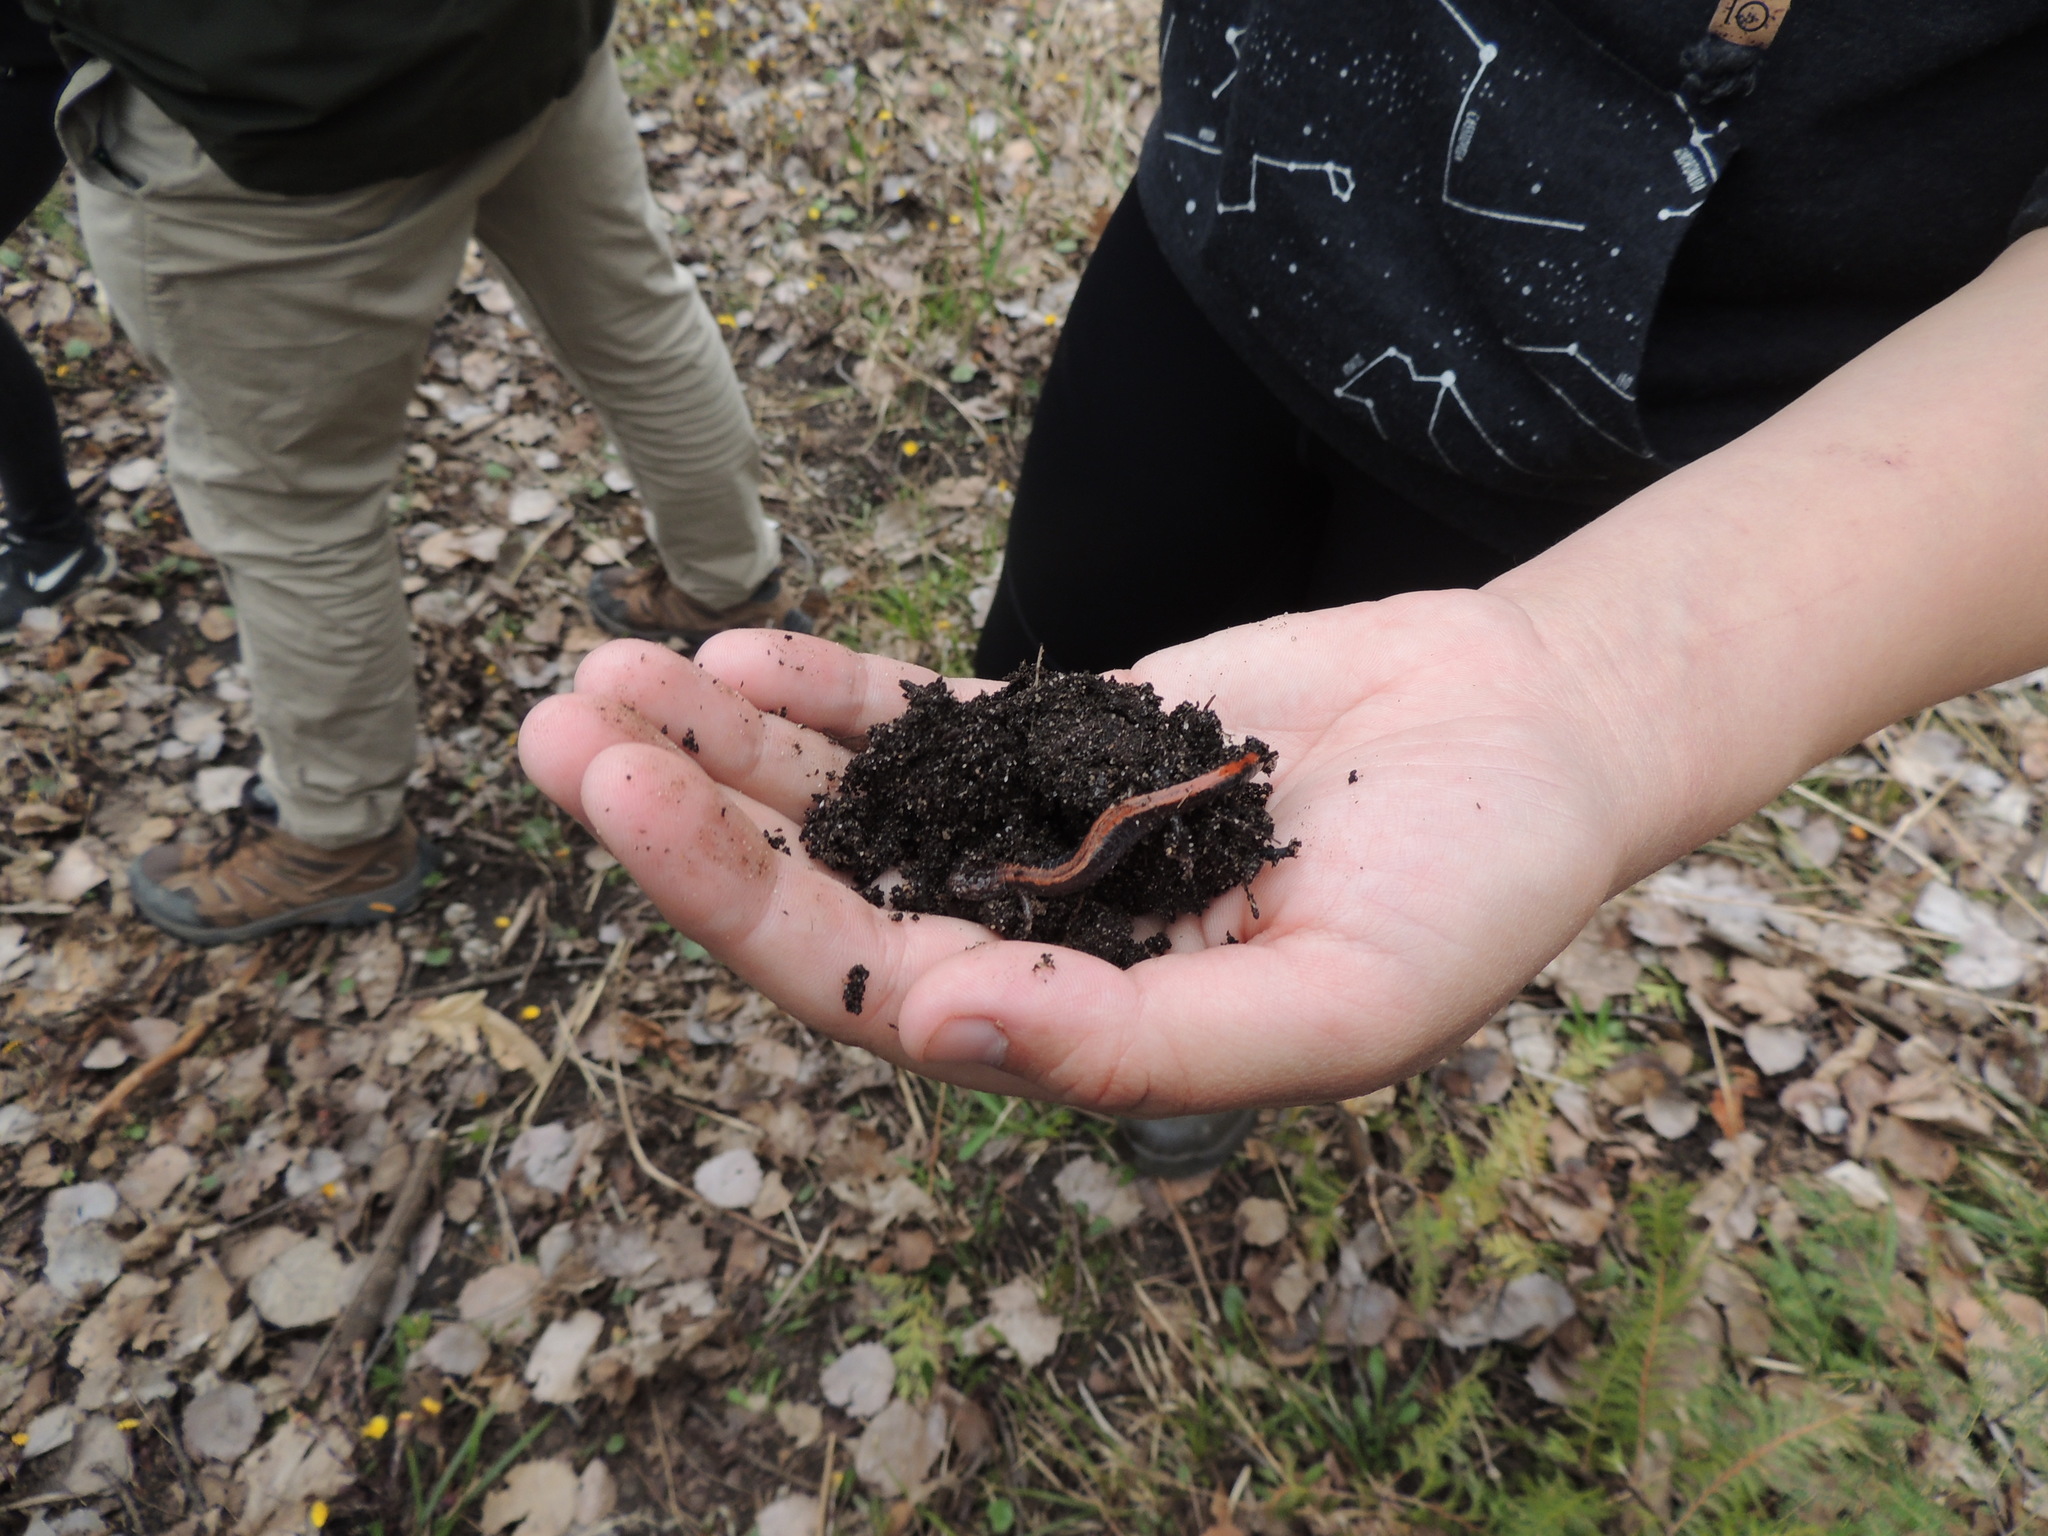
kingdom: Animalia
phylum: Chordata
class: Amphibia
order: Caudata
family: Plethodontidae
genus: Plethodon
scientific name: Plethodon cinereus
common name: Redback salamander
